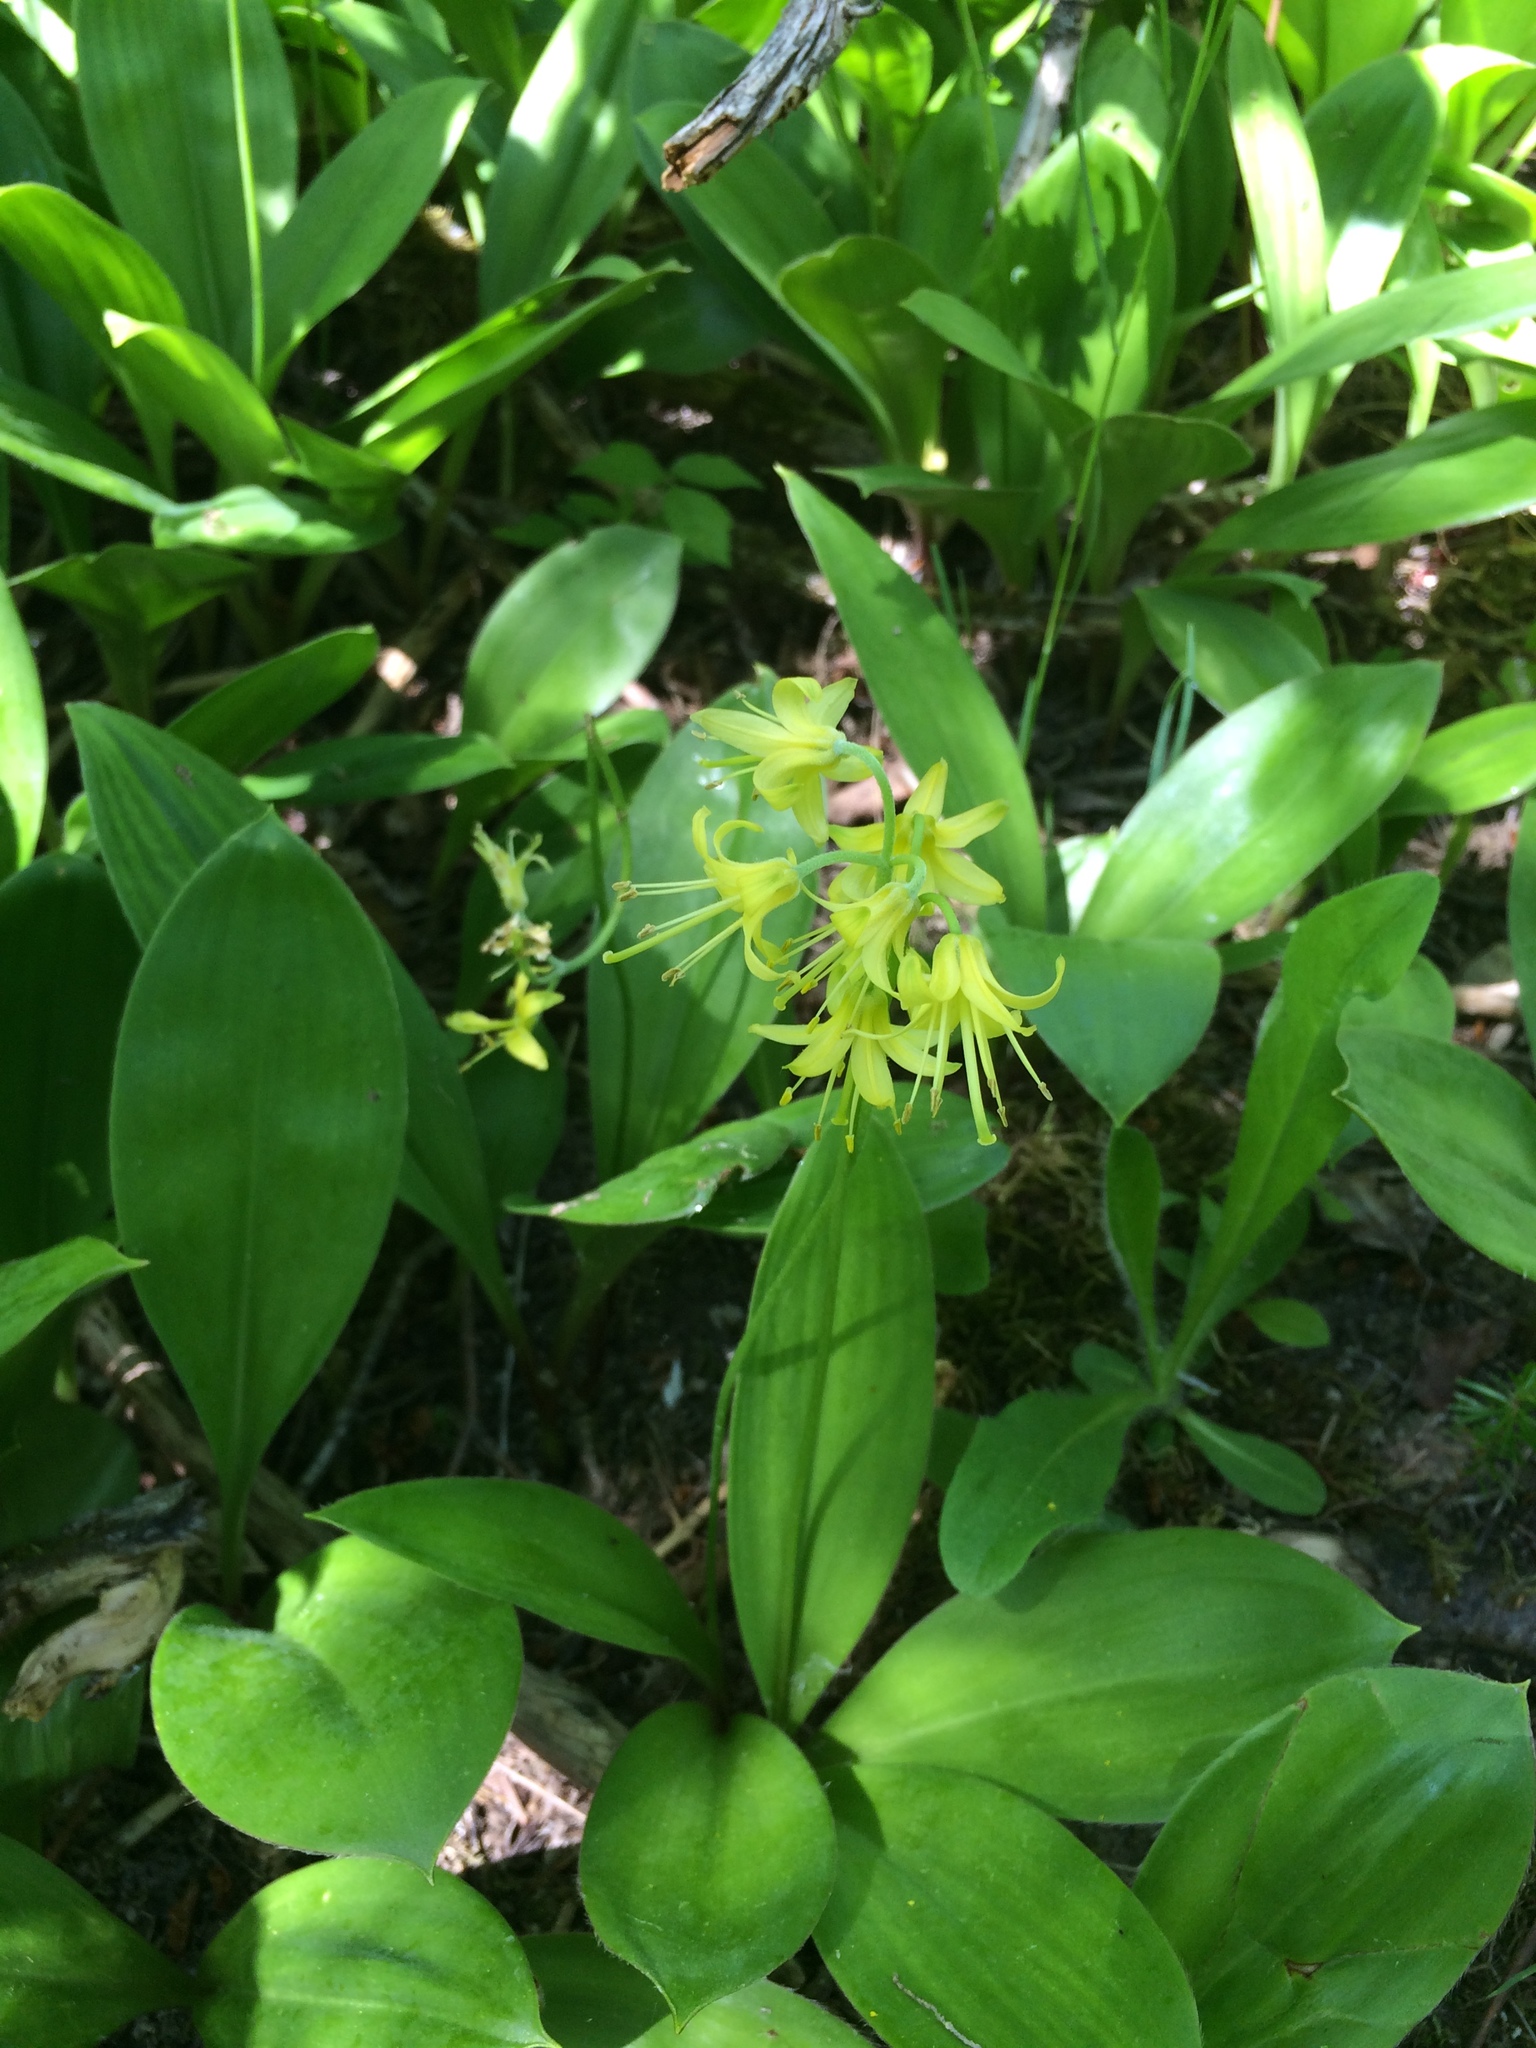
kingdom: Plantae
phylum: Tracheophyta
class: Liliopsida
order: Liliales
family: Liliaceae
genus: Clintonia
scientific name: Clintonia borealis
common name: Yellow clintonia
